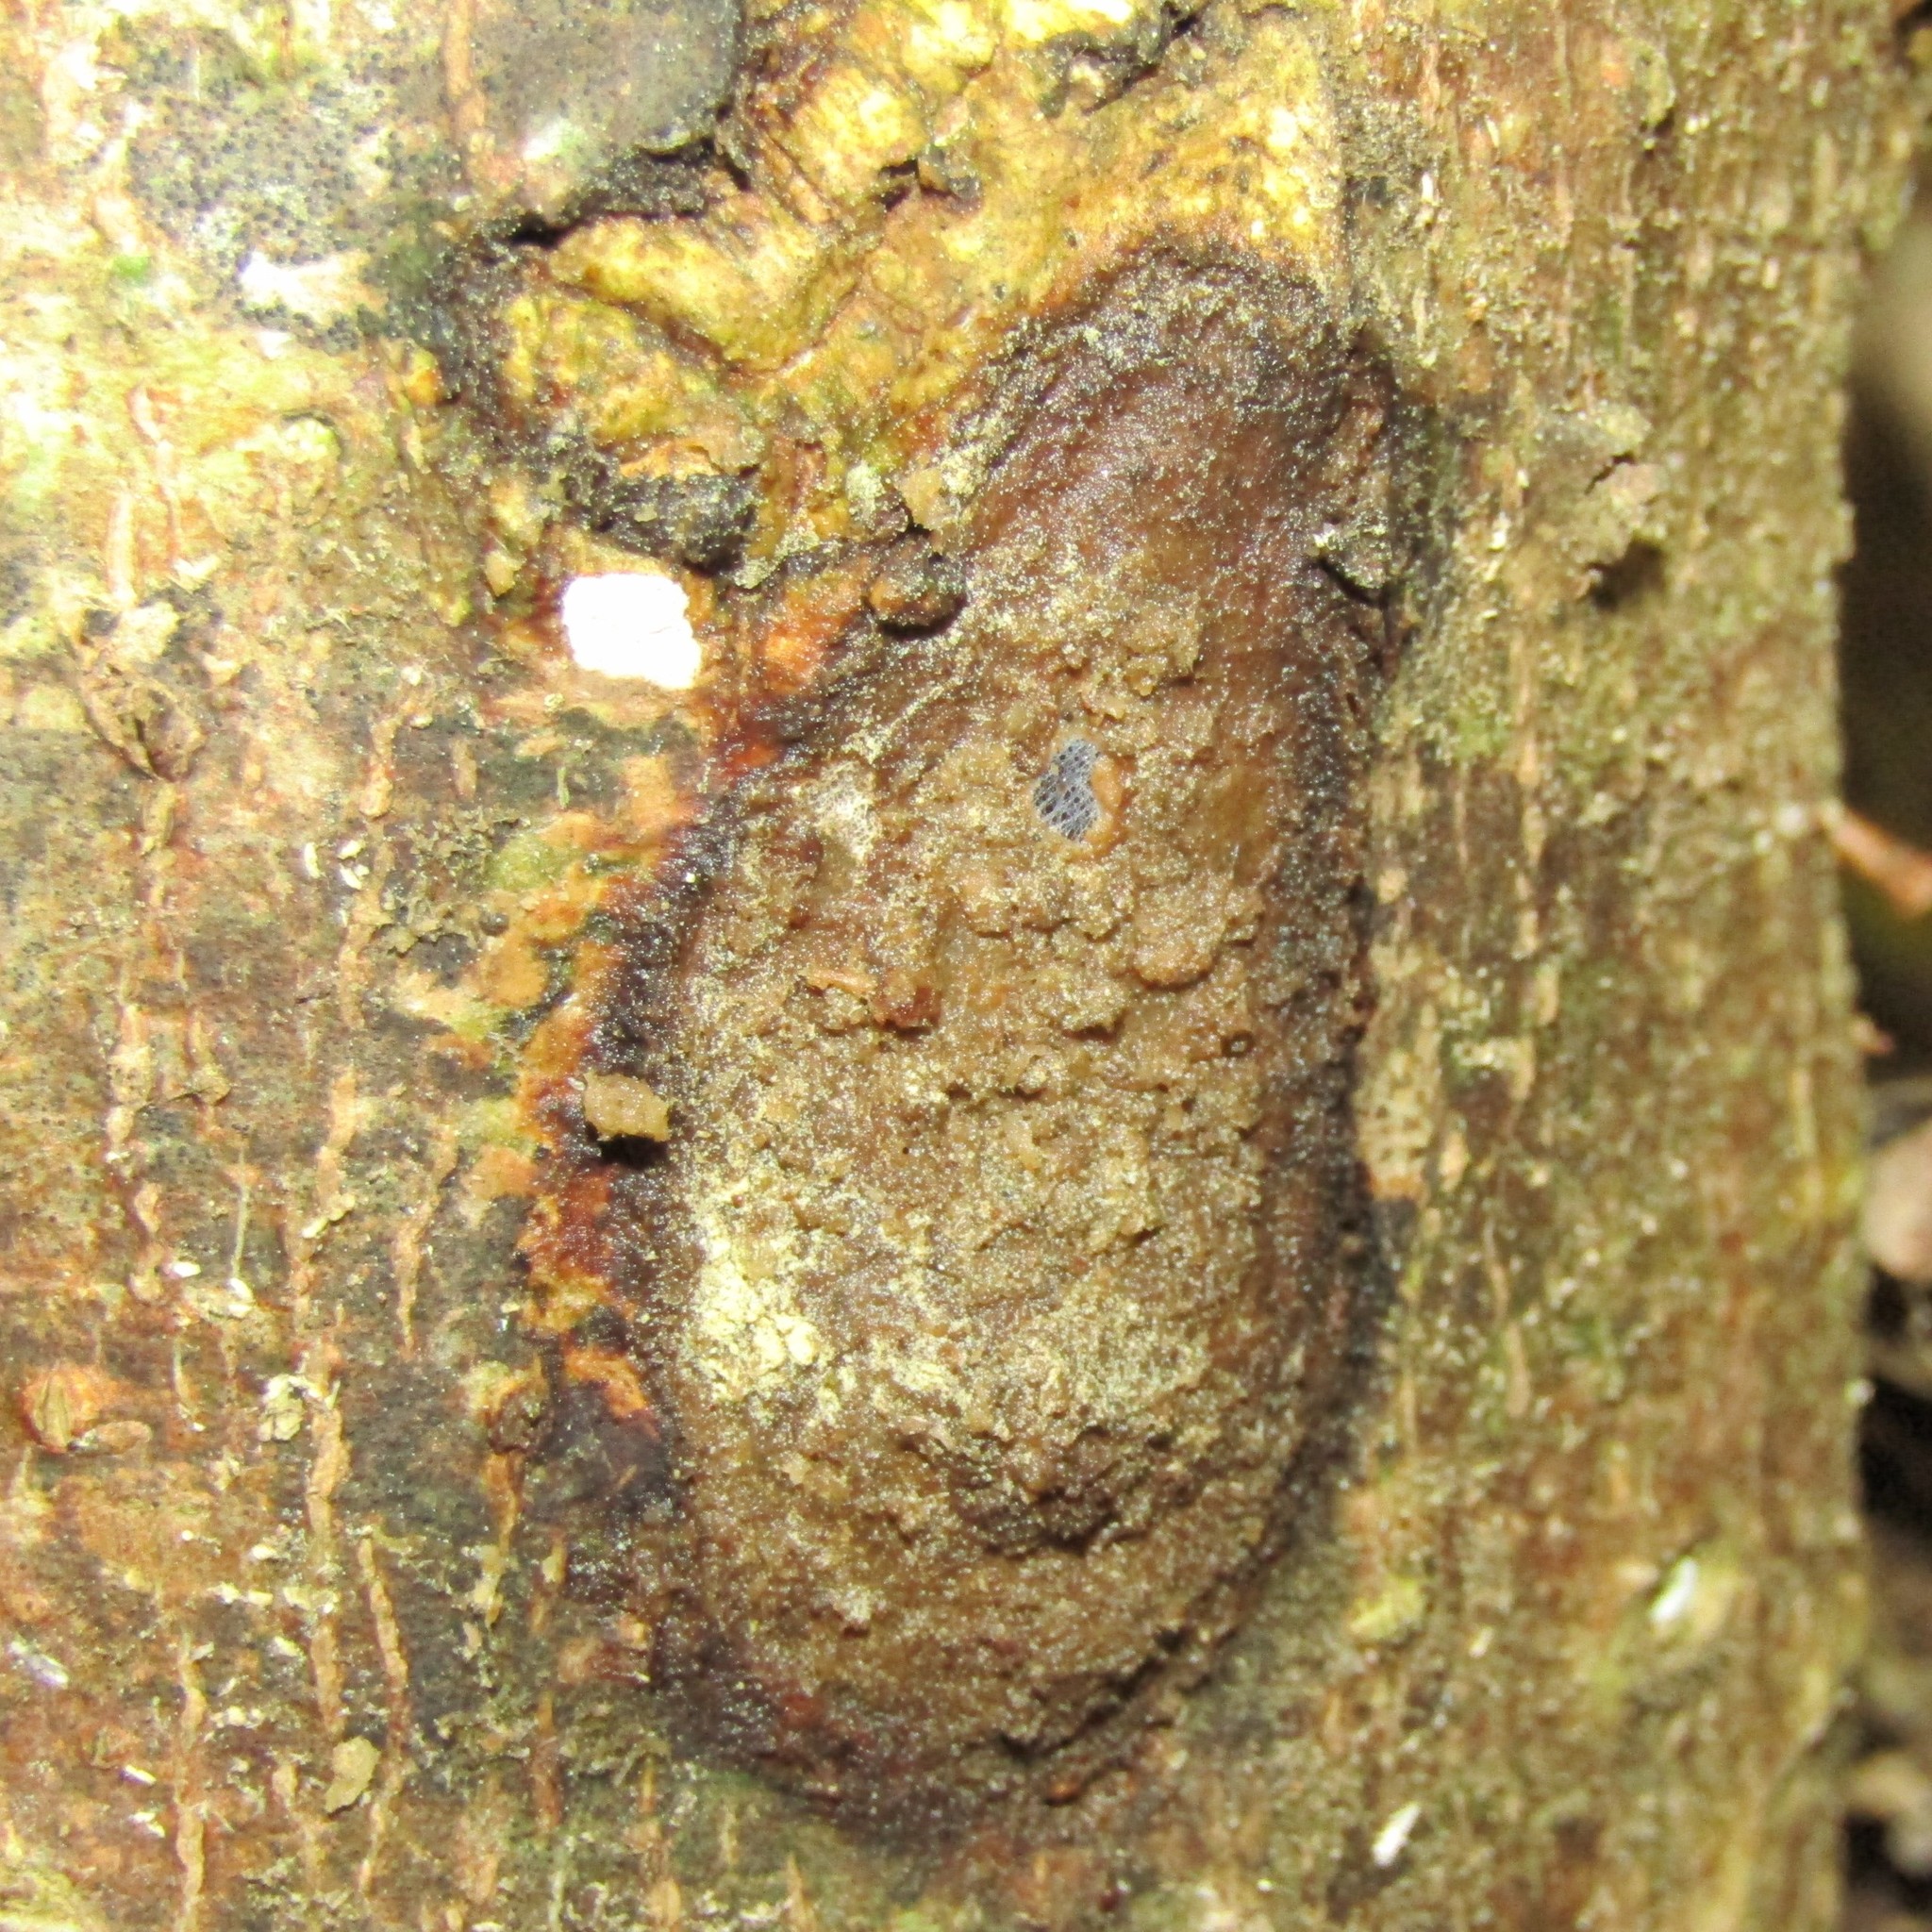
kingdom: Animalia
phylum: Arthropoda
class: Insecta
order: Lepidoptera
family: Hepialidae
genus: Aenetus
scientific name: Aenetus virescens
